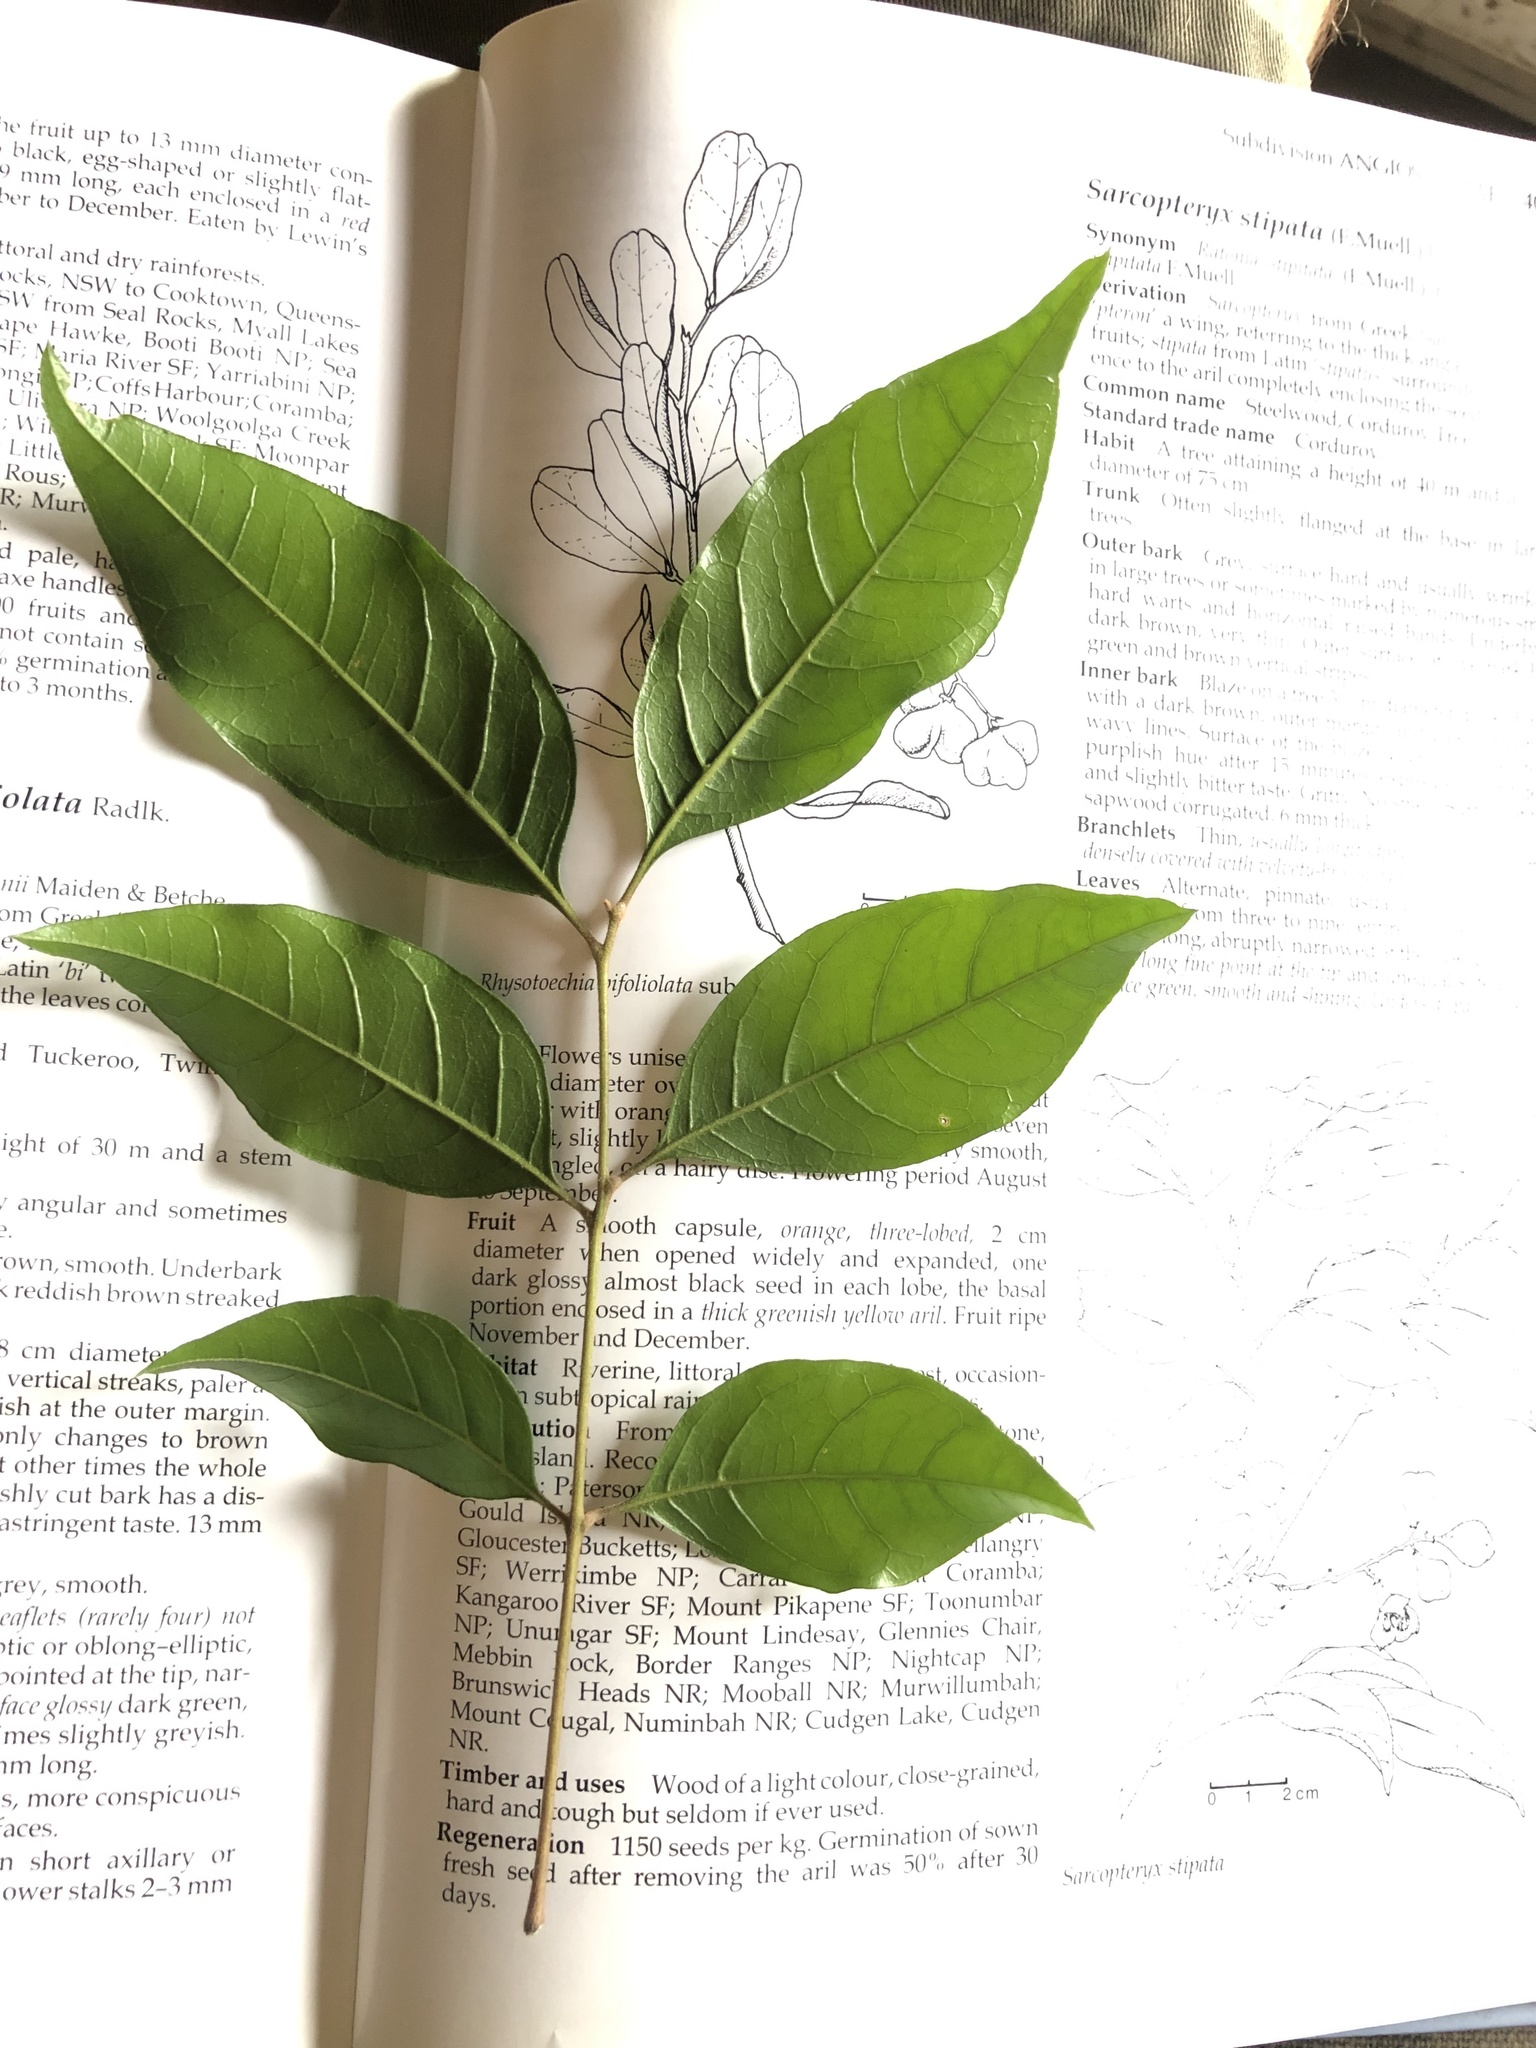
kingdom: Plantae
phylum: Tracheophyta
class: Magnoliopsida
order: Sapindales
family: Sapindaceae
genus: Sarcopteryx
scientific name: Sarcopteryx stipata
